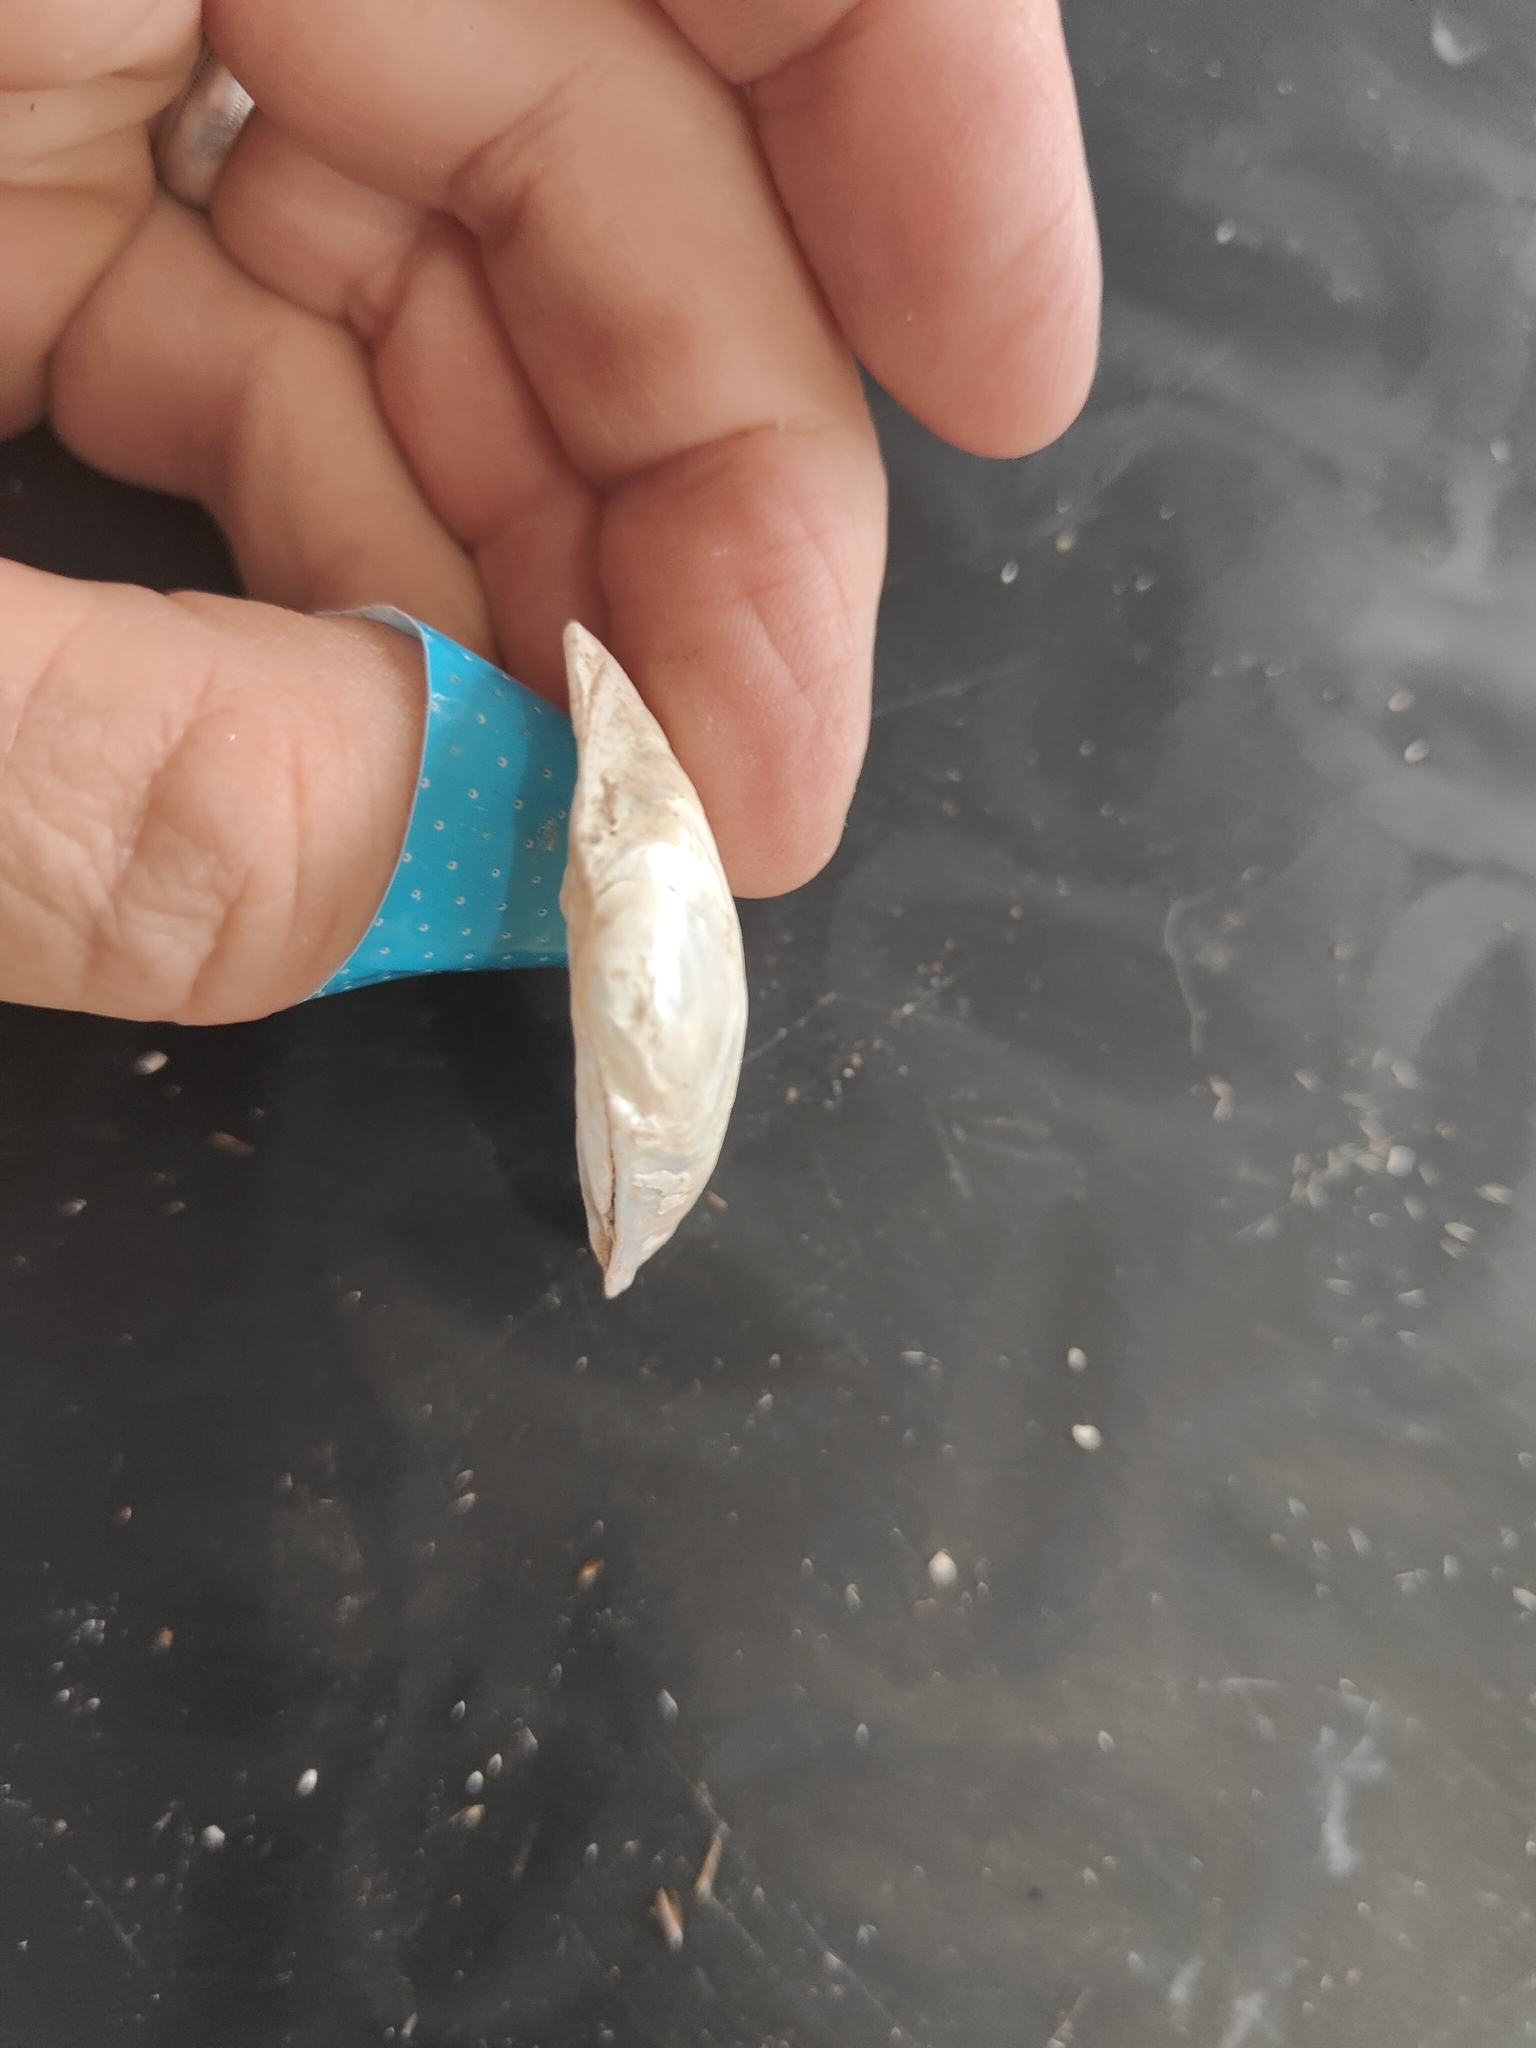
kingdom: Animalia
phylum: Mollusca
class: Bivalvia
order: Unionida
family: Unionidae
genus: Truncilla
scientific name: Truncilla truncata
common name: Deertoe
